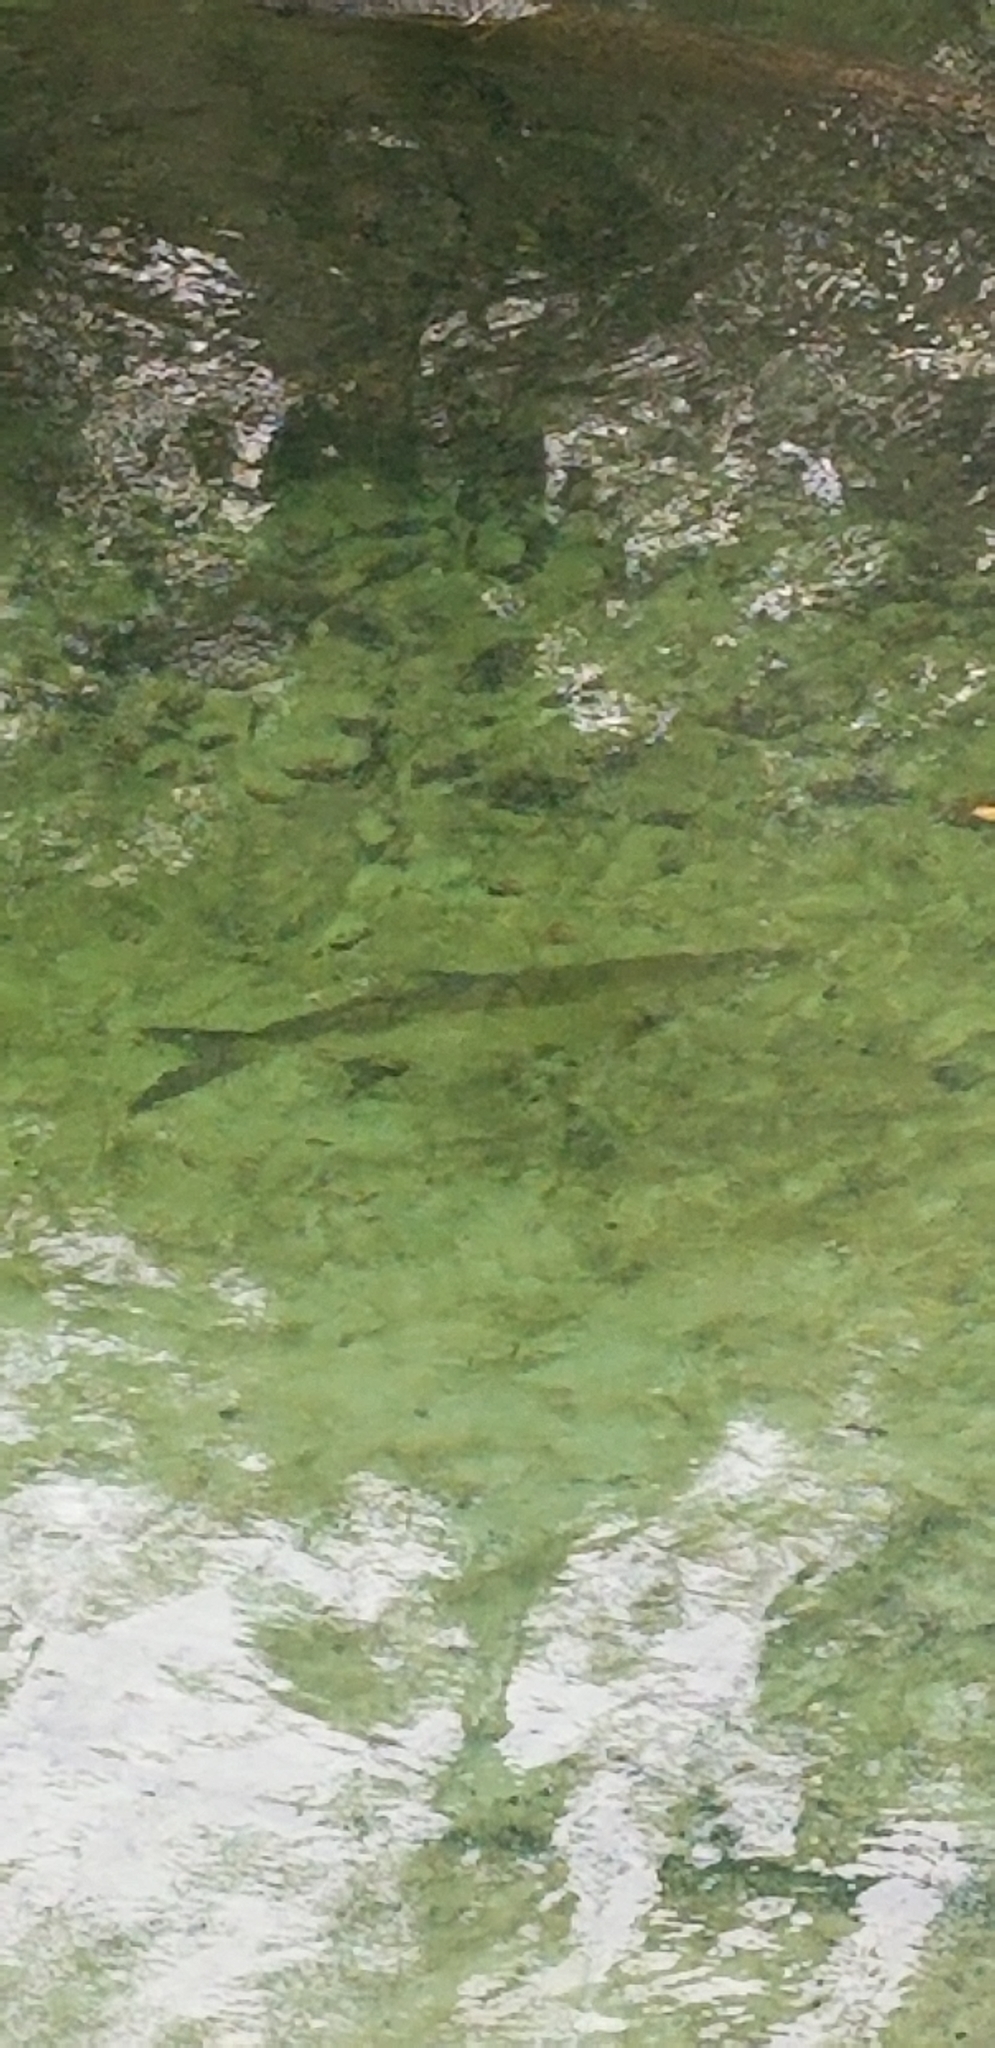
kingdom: Animalia
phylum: Chordata
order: Elopiformes
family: Megalopidae
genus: Megalops
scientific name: Megalops atlanticus
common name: Tarpon
